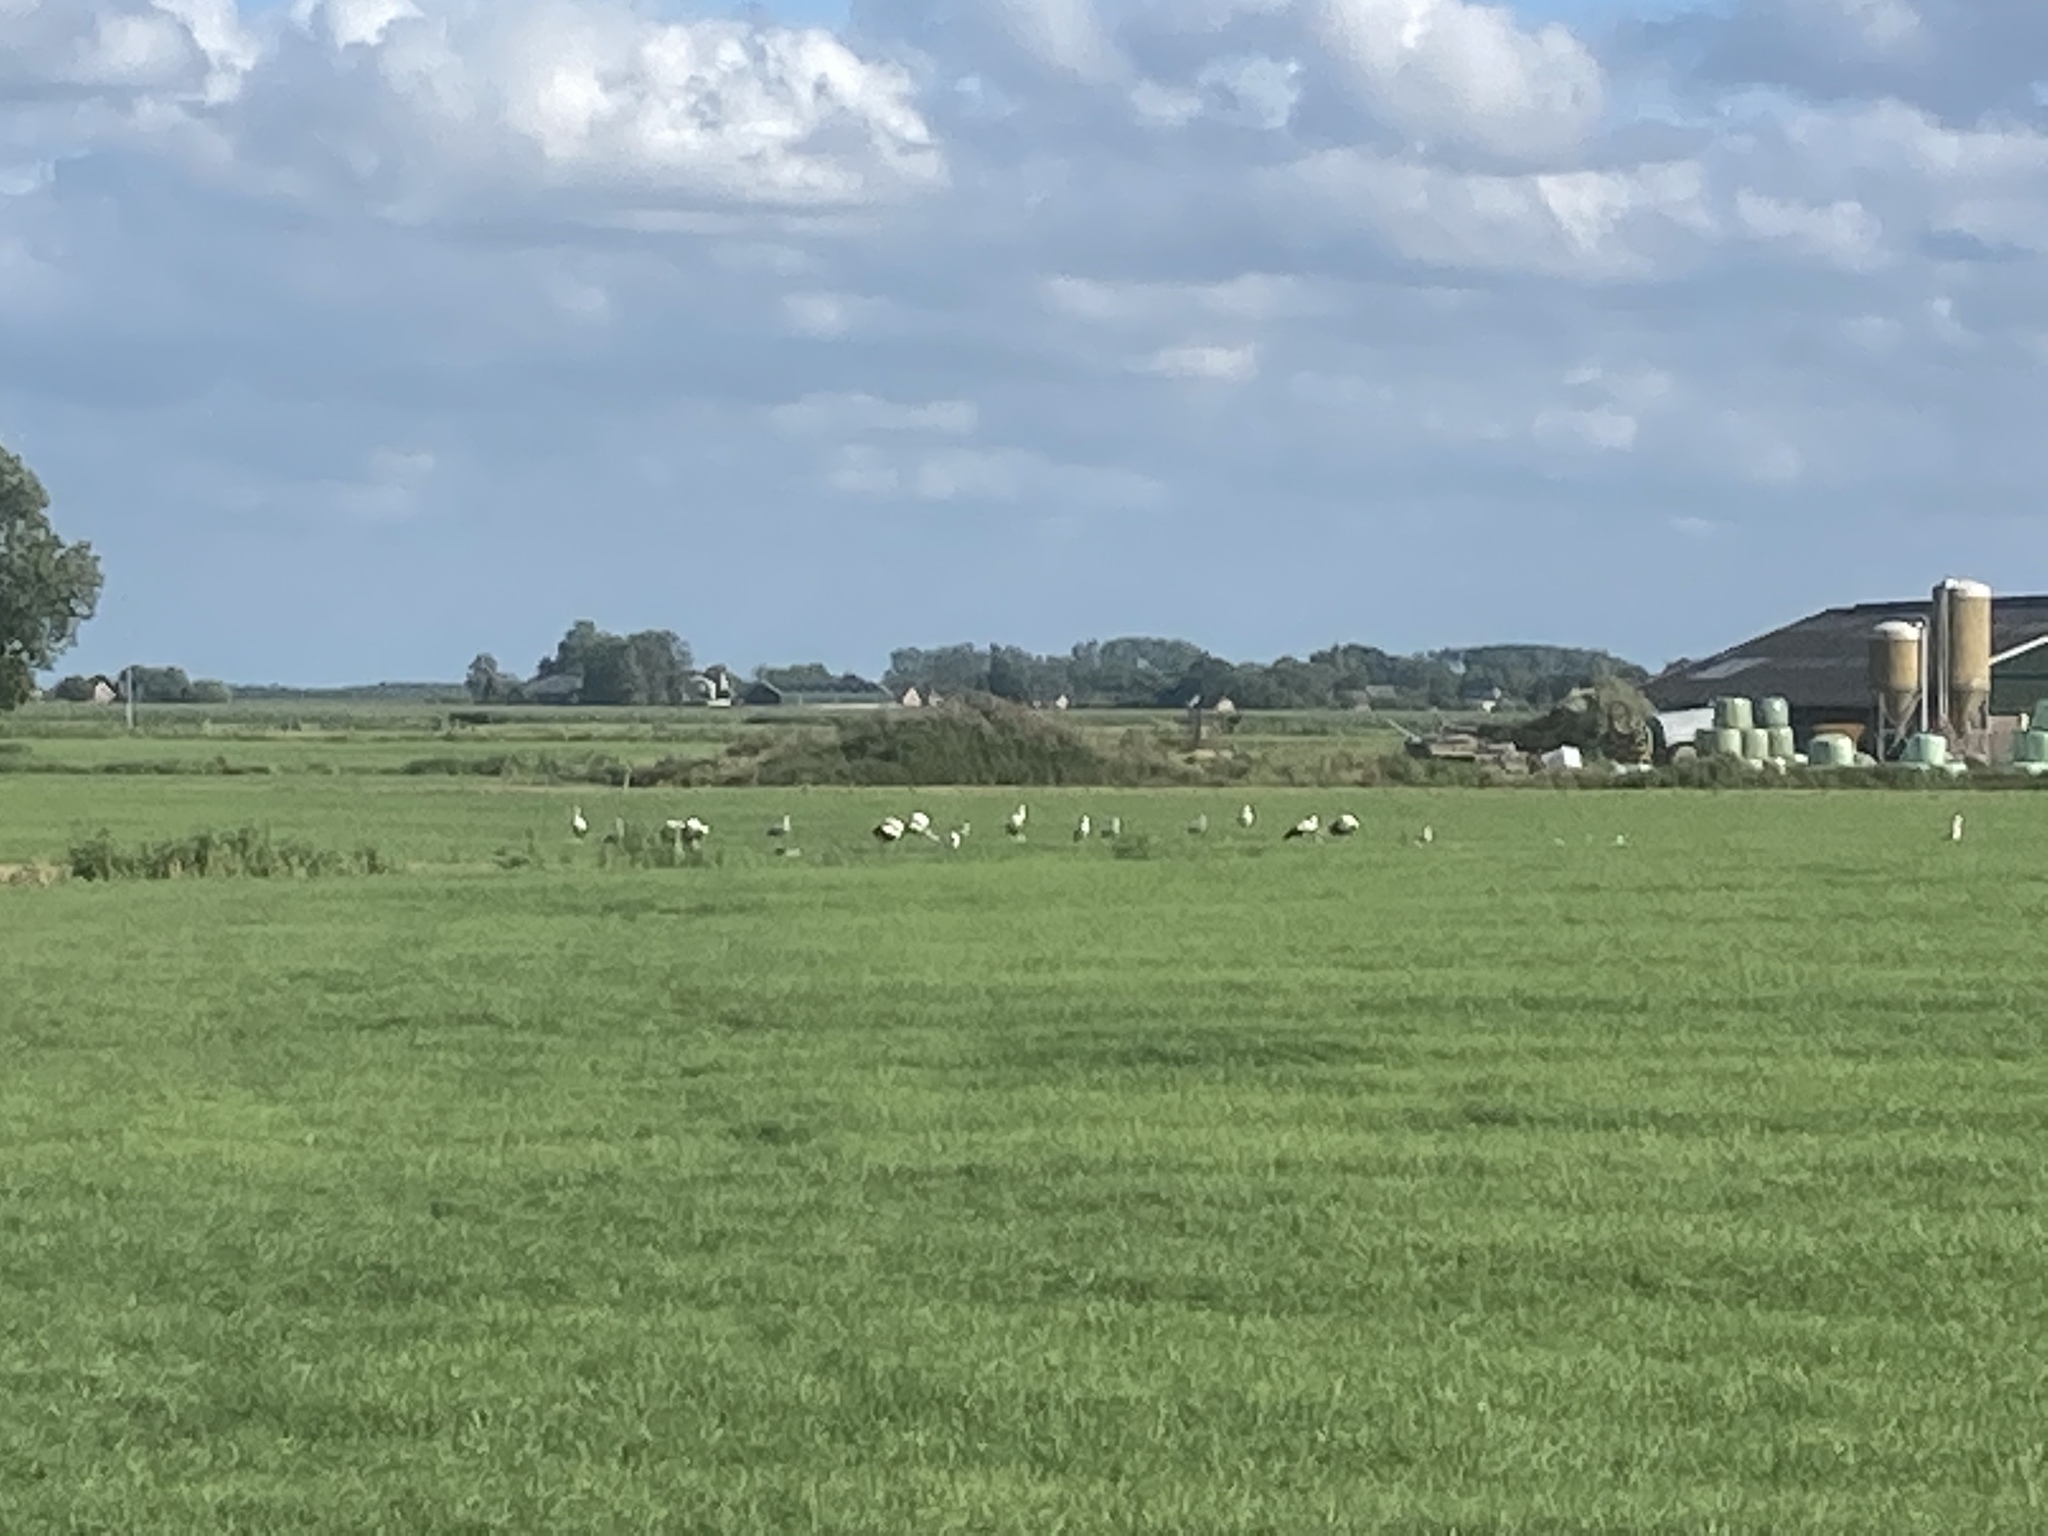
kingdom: Animalia
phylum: Chordata
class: Aves
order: Ciconiiformes
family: Ciconiidae
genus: Ciconia
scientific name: Ciconia ciconia
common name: White stork
